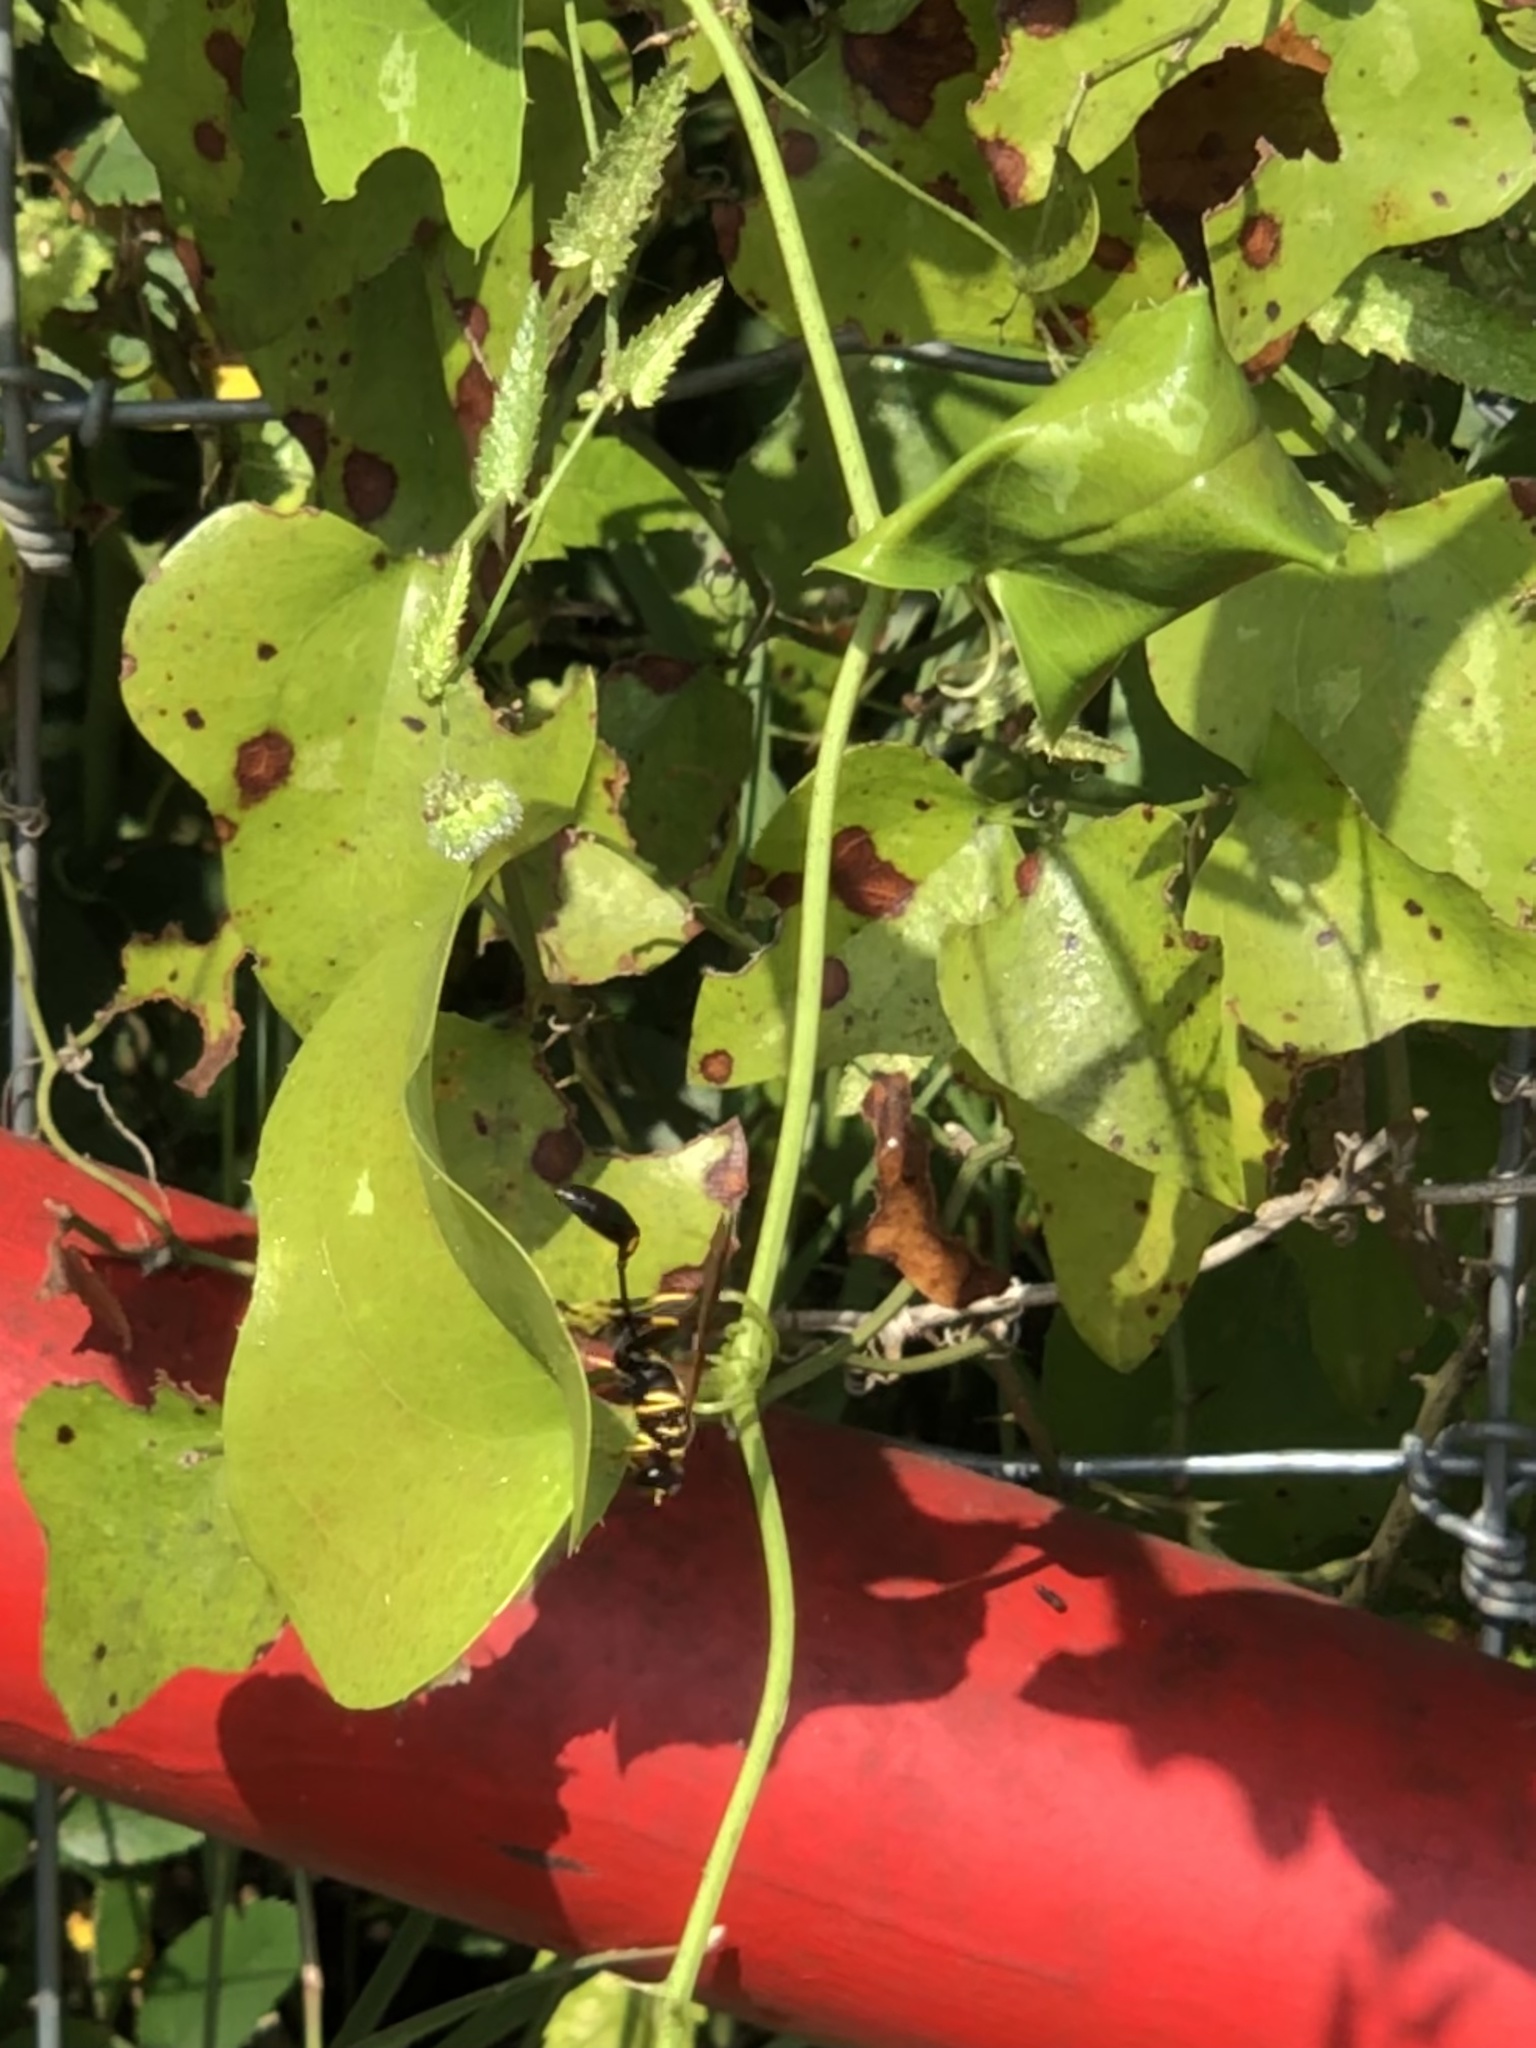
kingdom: Plantae
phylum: Tracheophyta
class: Liliopsida
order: Liliales
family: Smilacaceae
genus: Smilax
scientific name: Smilax bona-nox
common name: Catbrier
